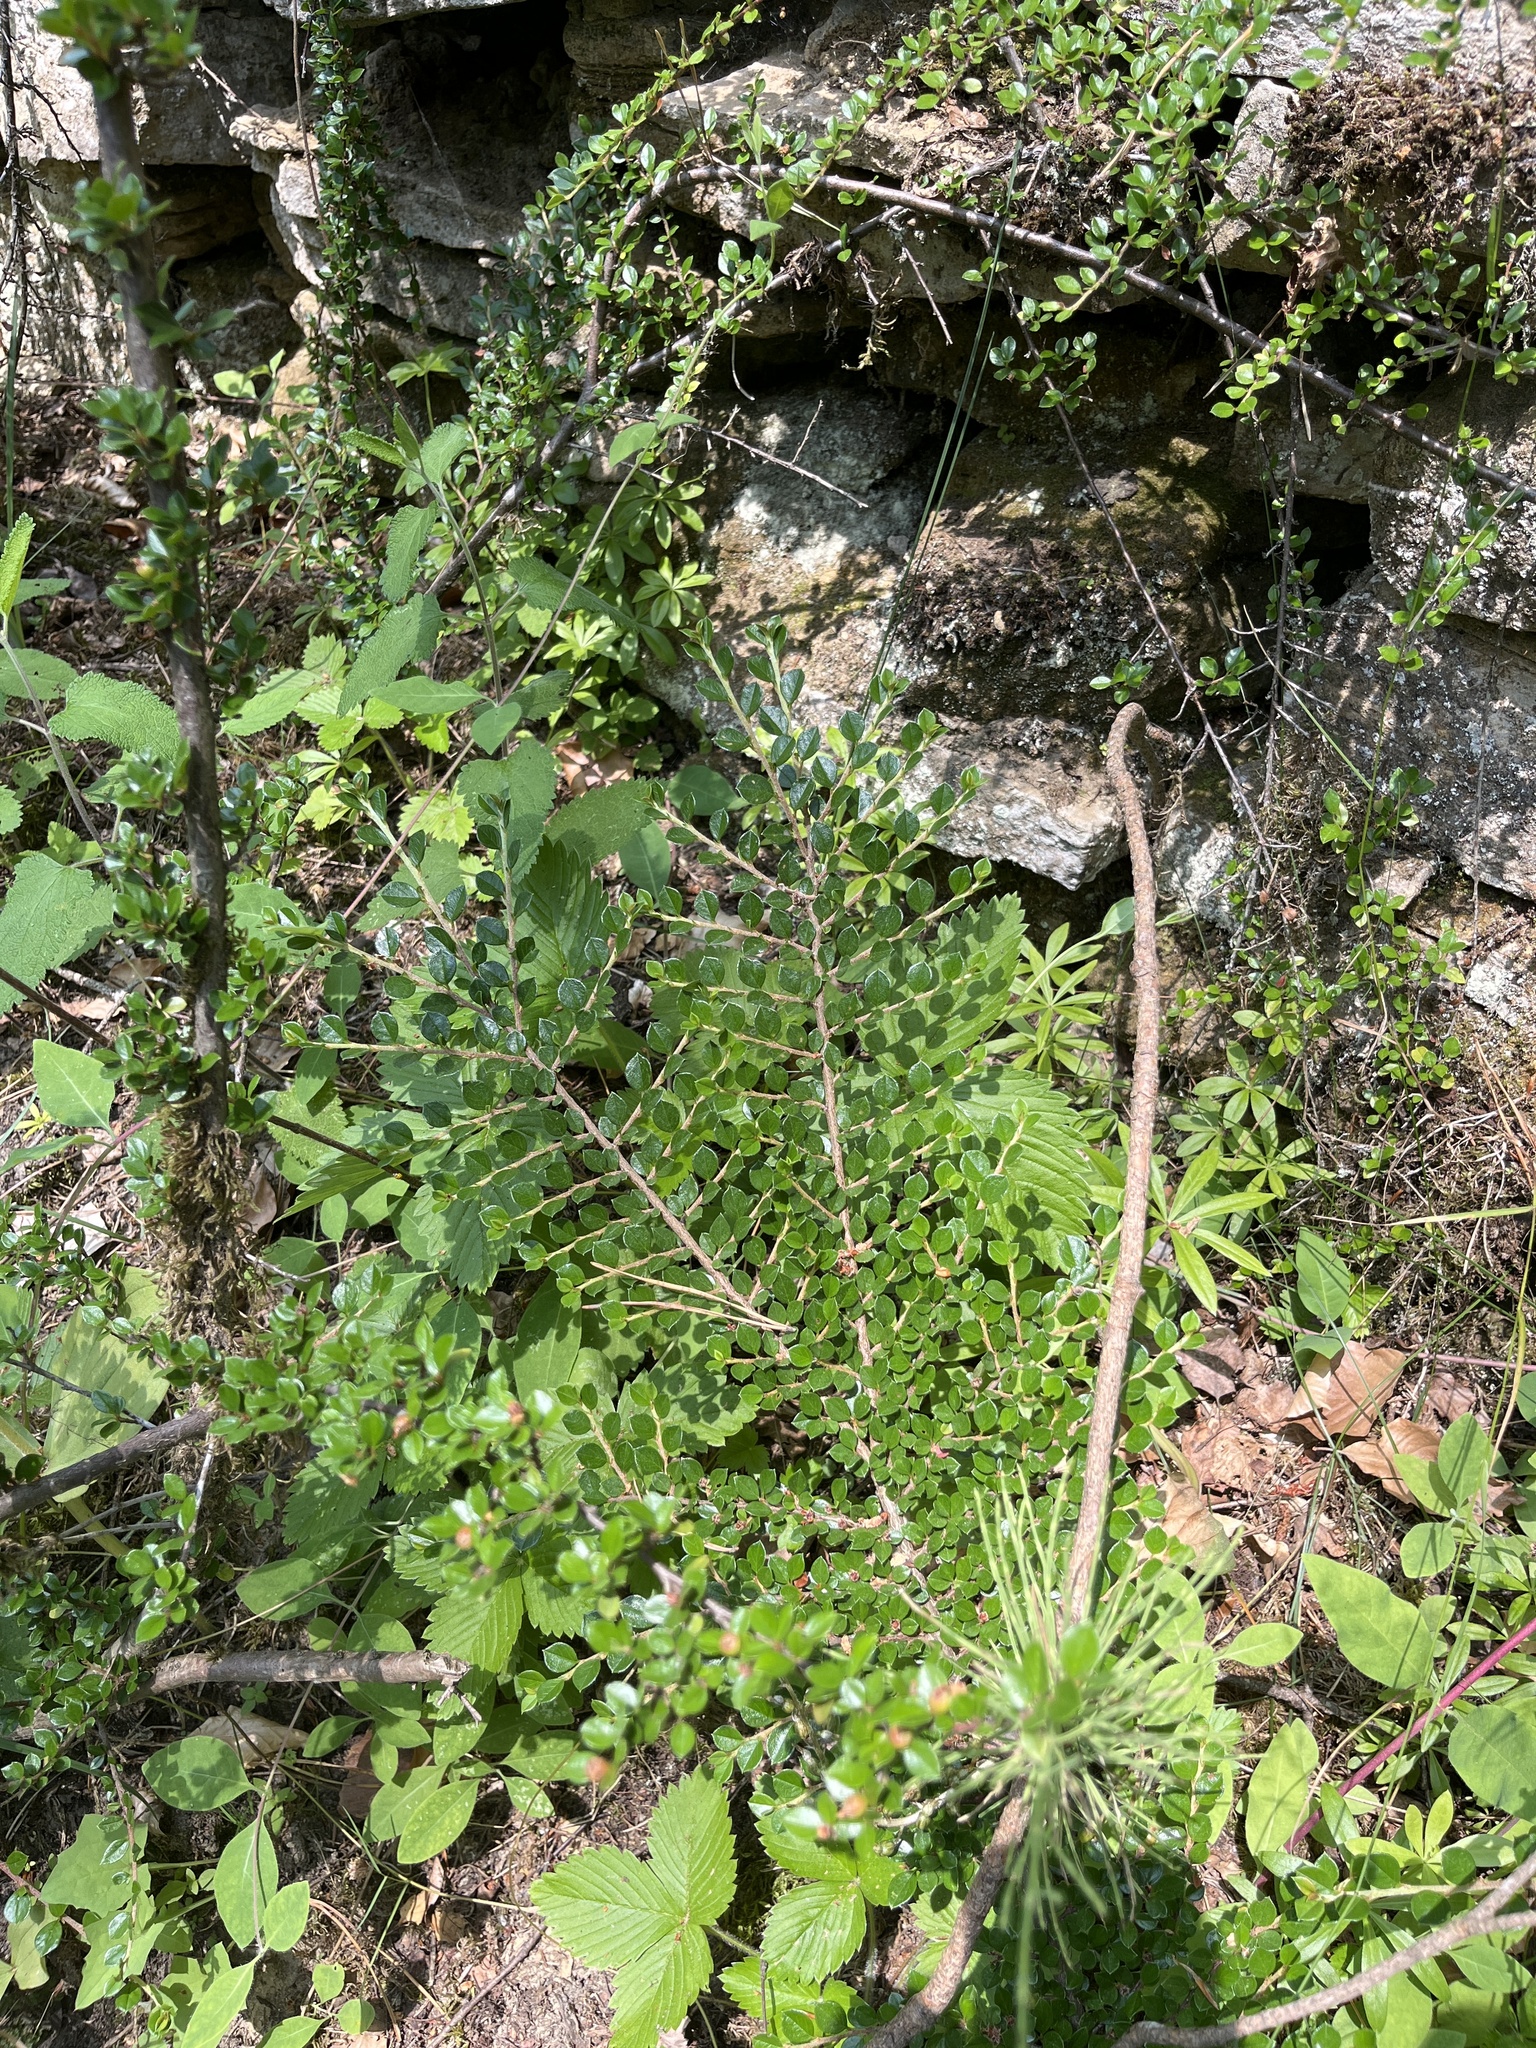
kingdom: Plantae
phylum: Tracheophyta
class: Magnoliopsida
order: Rosales
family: Rosaceae
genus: Cotoneaster
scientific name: Cotoneaster horizontalis
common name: Wall cotoneaster
